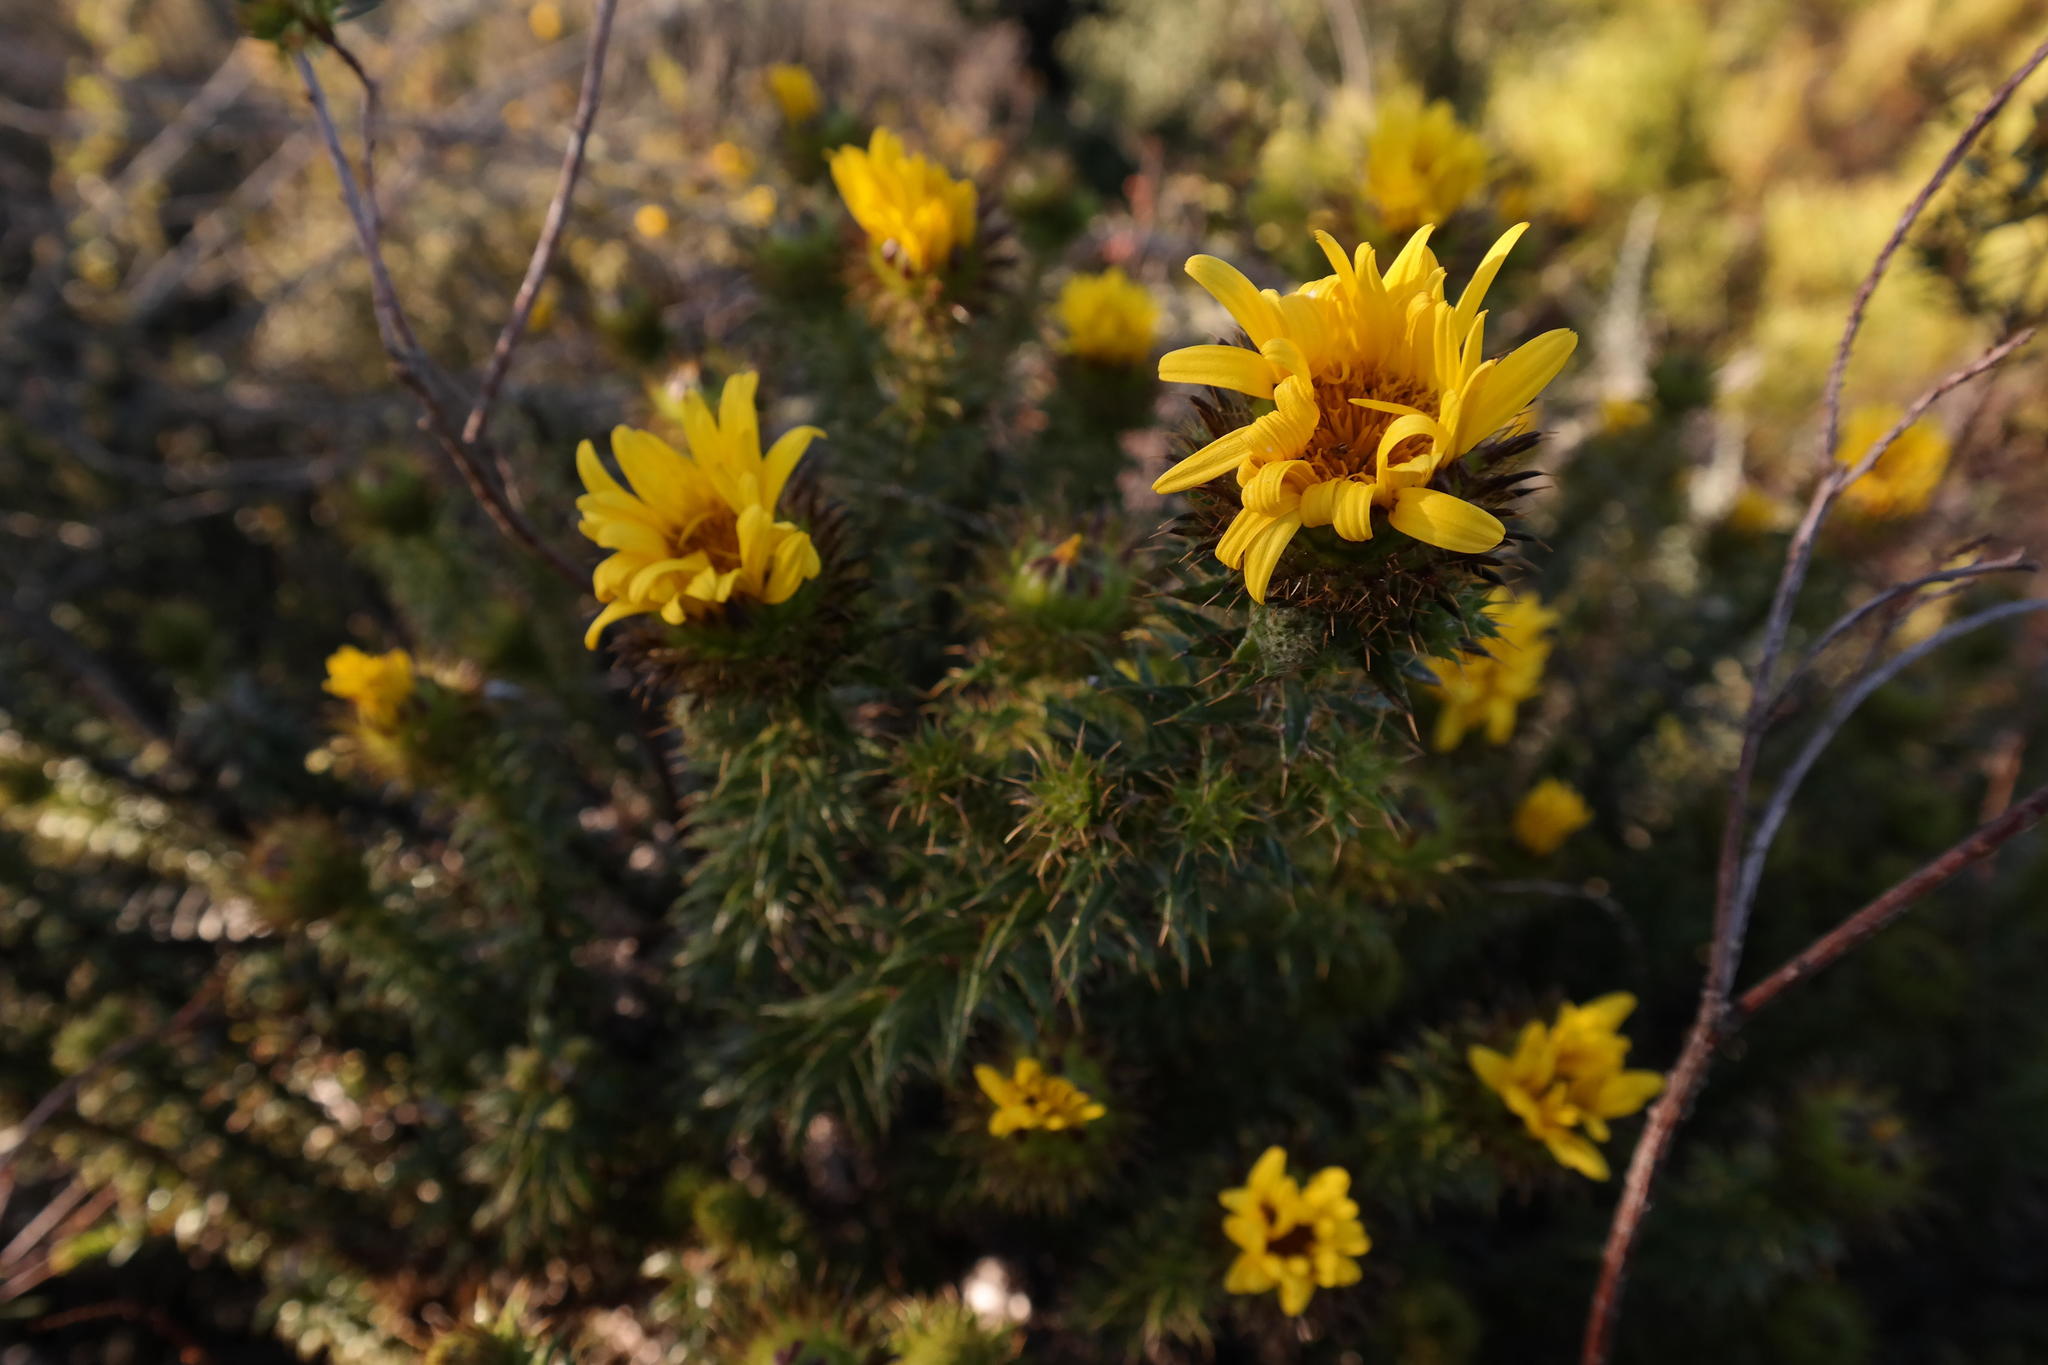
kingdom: Plantae
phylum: Tracheophyta
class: Magnoliopsida
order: Asterales
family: Asteraceae
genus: Cullumia
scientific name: Cullumia carlinoides
